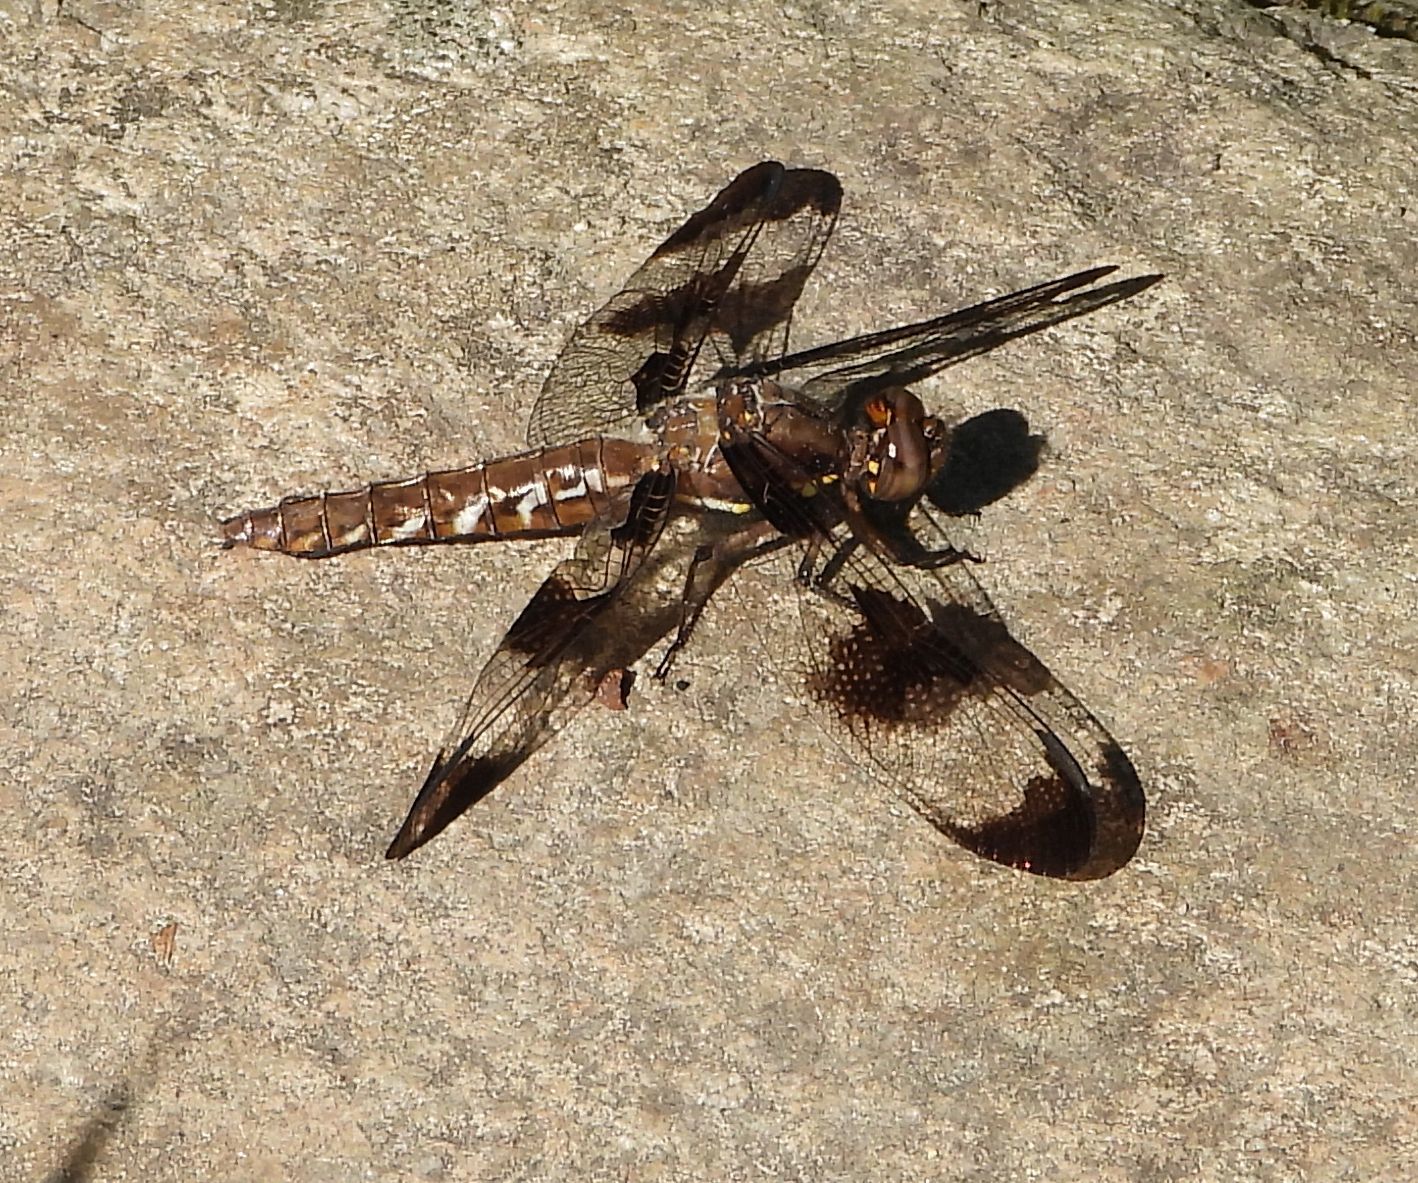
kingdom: Animalia
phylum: Arthropoda
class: Insecta
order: Odonata
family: Libellulidae
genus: Plathemis
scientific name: Plathemis lydia
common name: Common whitetail
